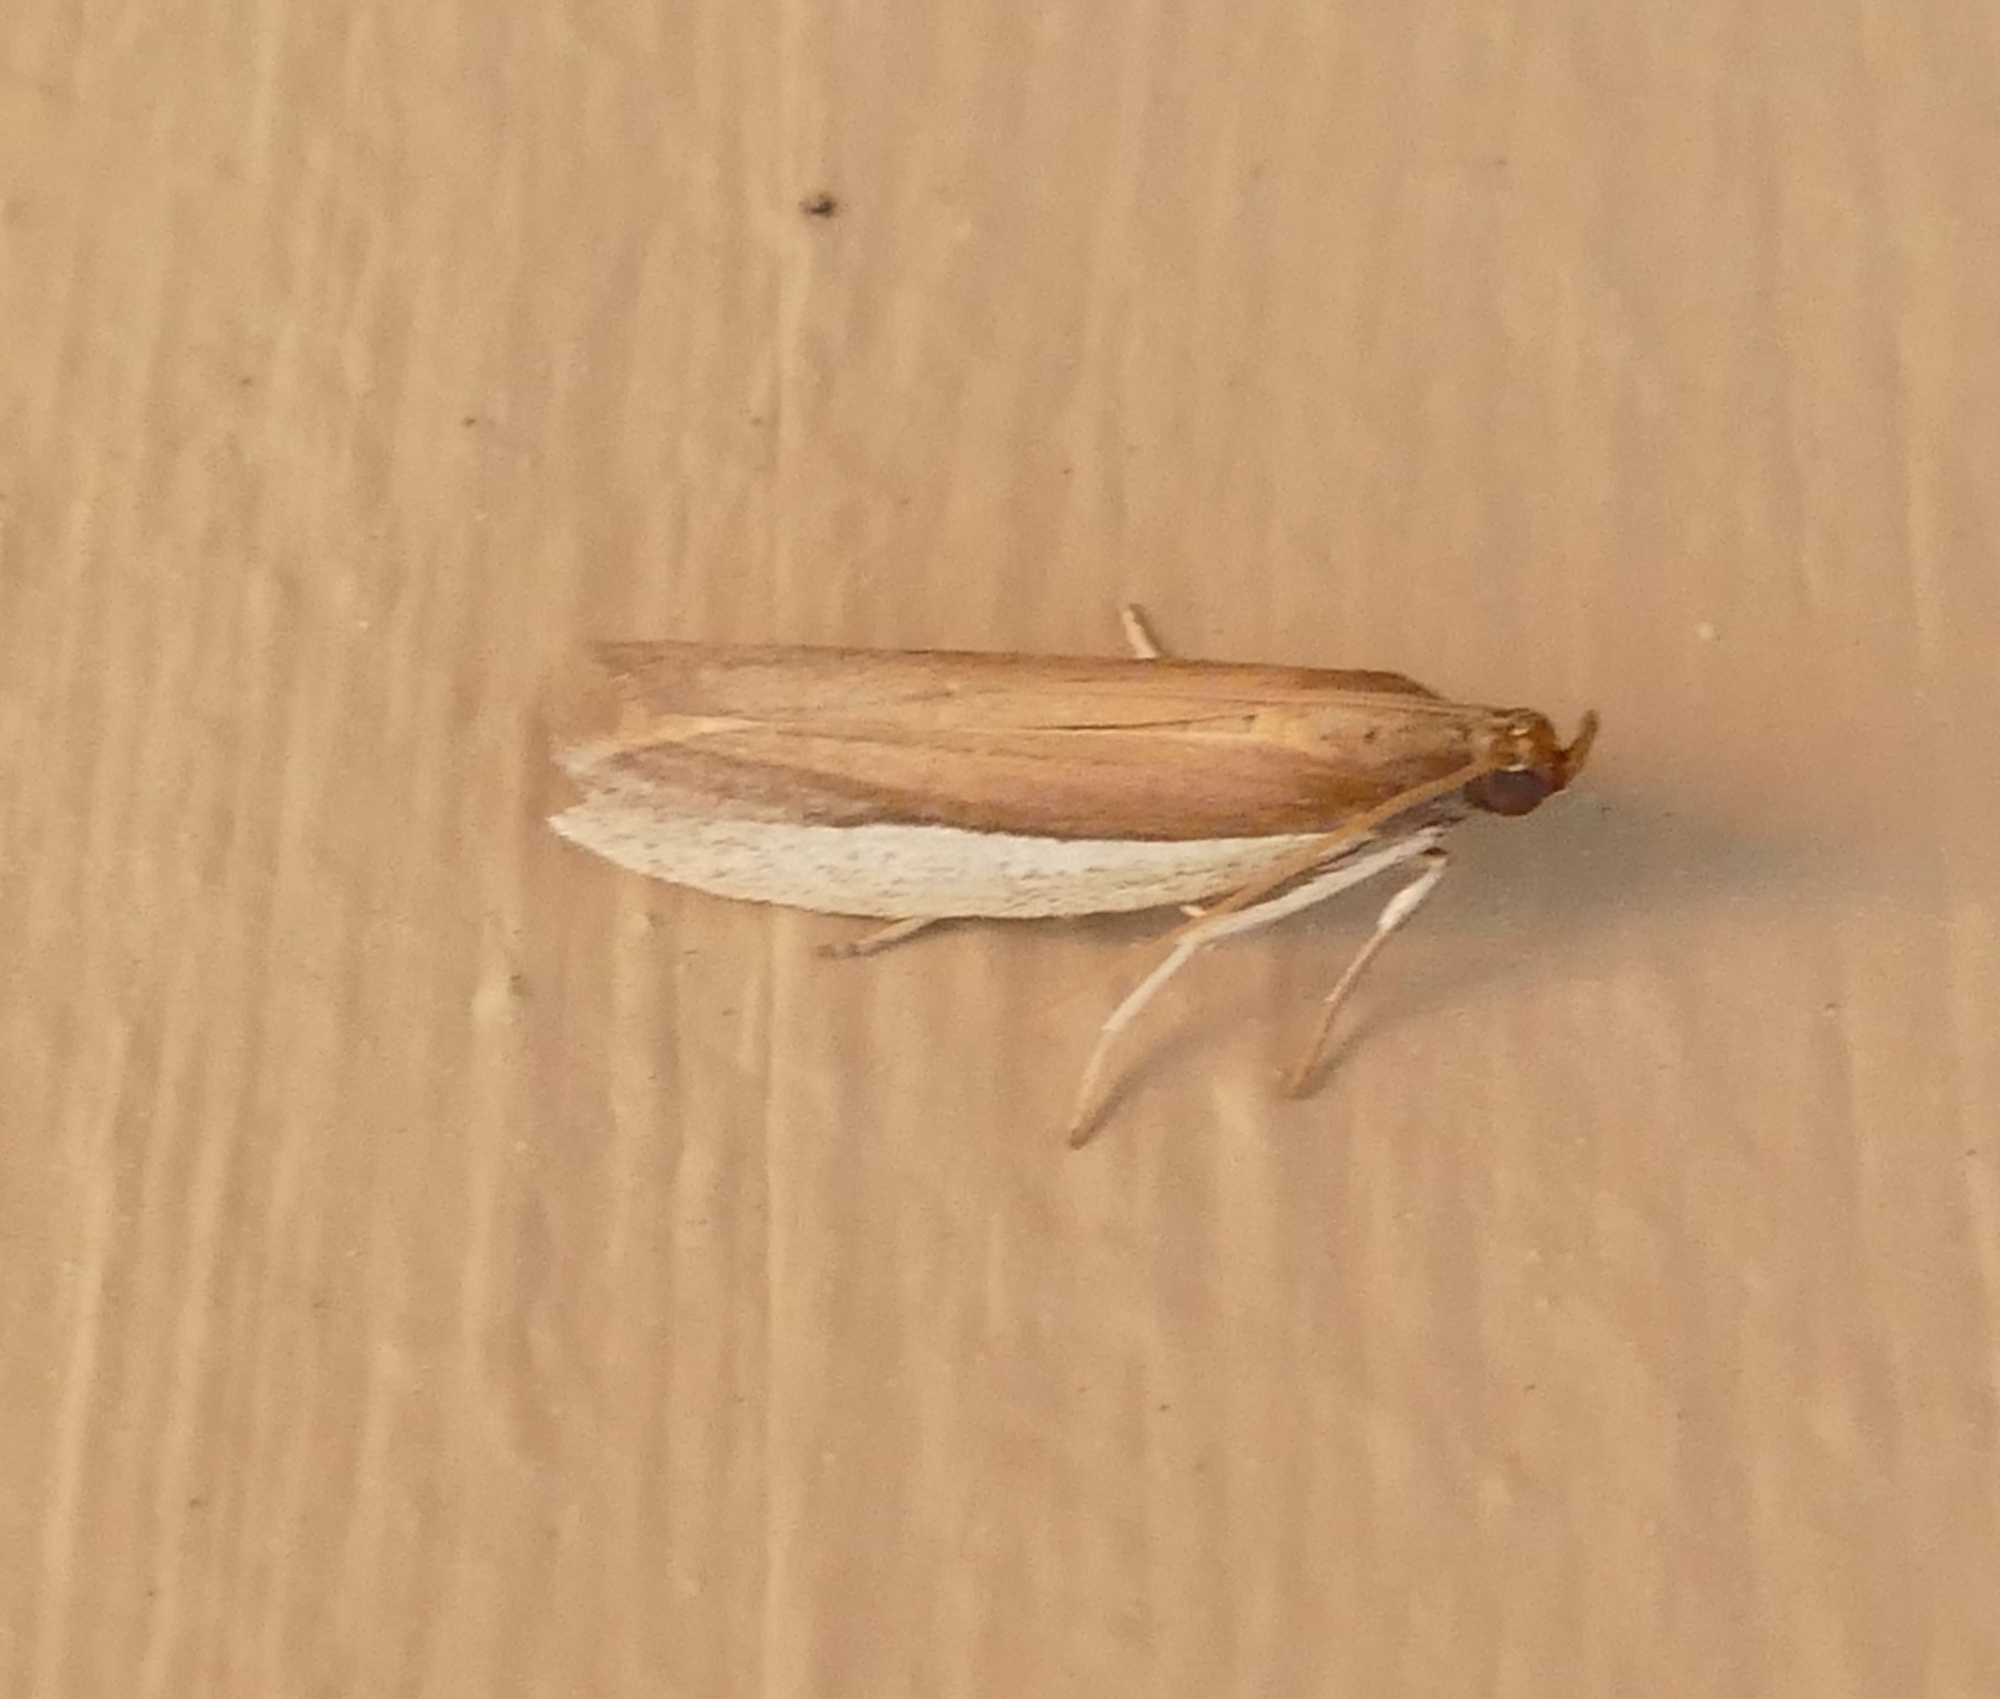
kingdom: Animalia
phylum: Arthropoda
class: Insecta
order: Lepidoptera
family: Pyralidae
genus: Tampa
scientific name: Tampa dimediatella
